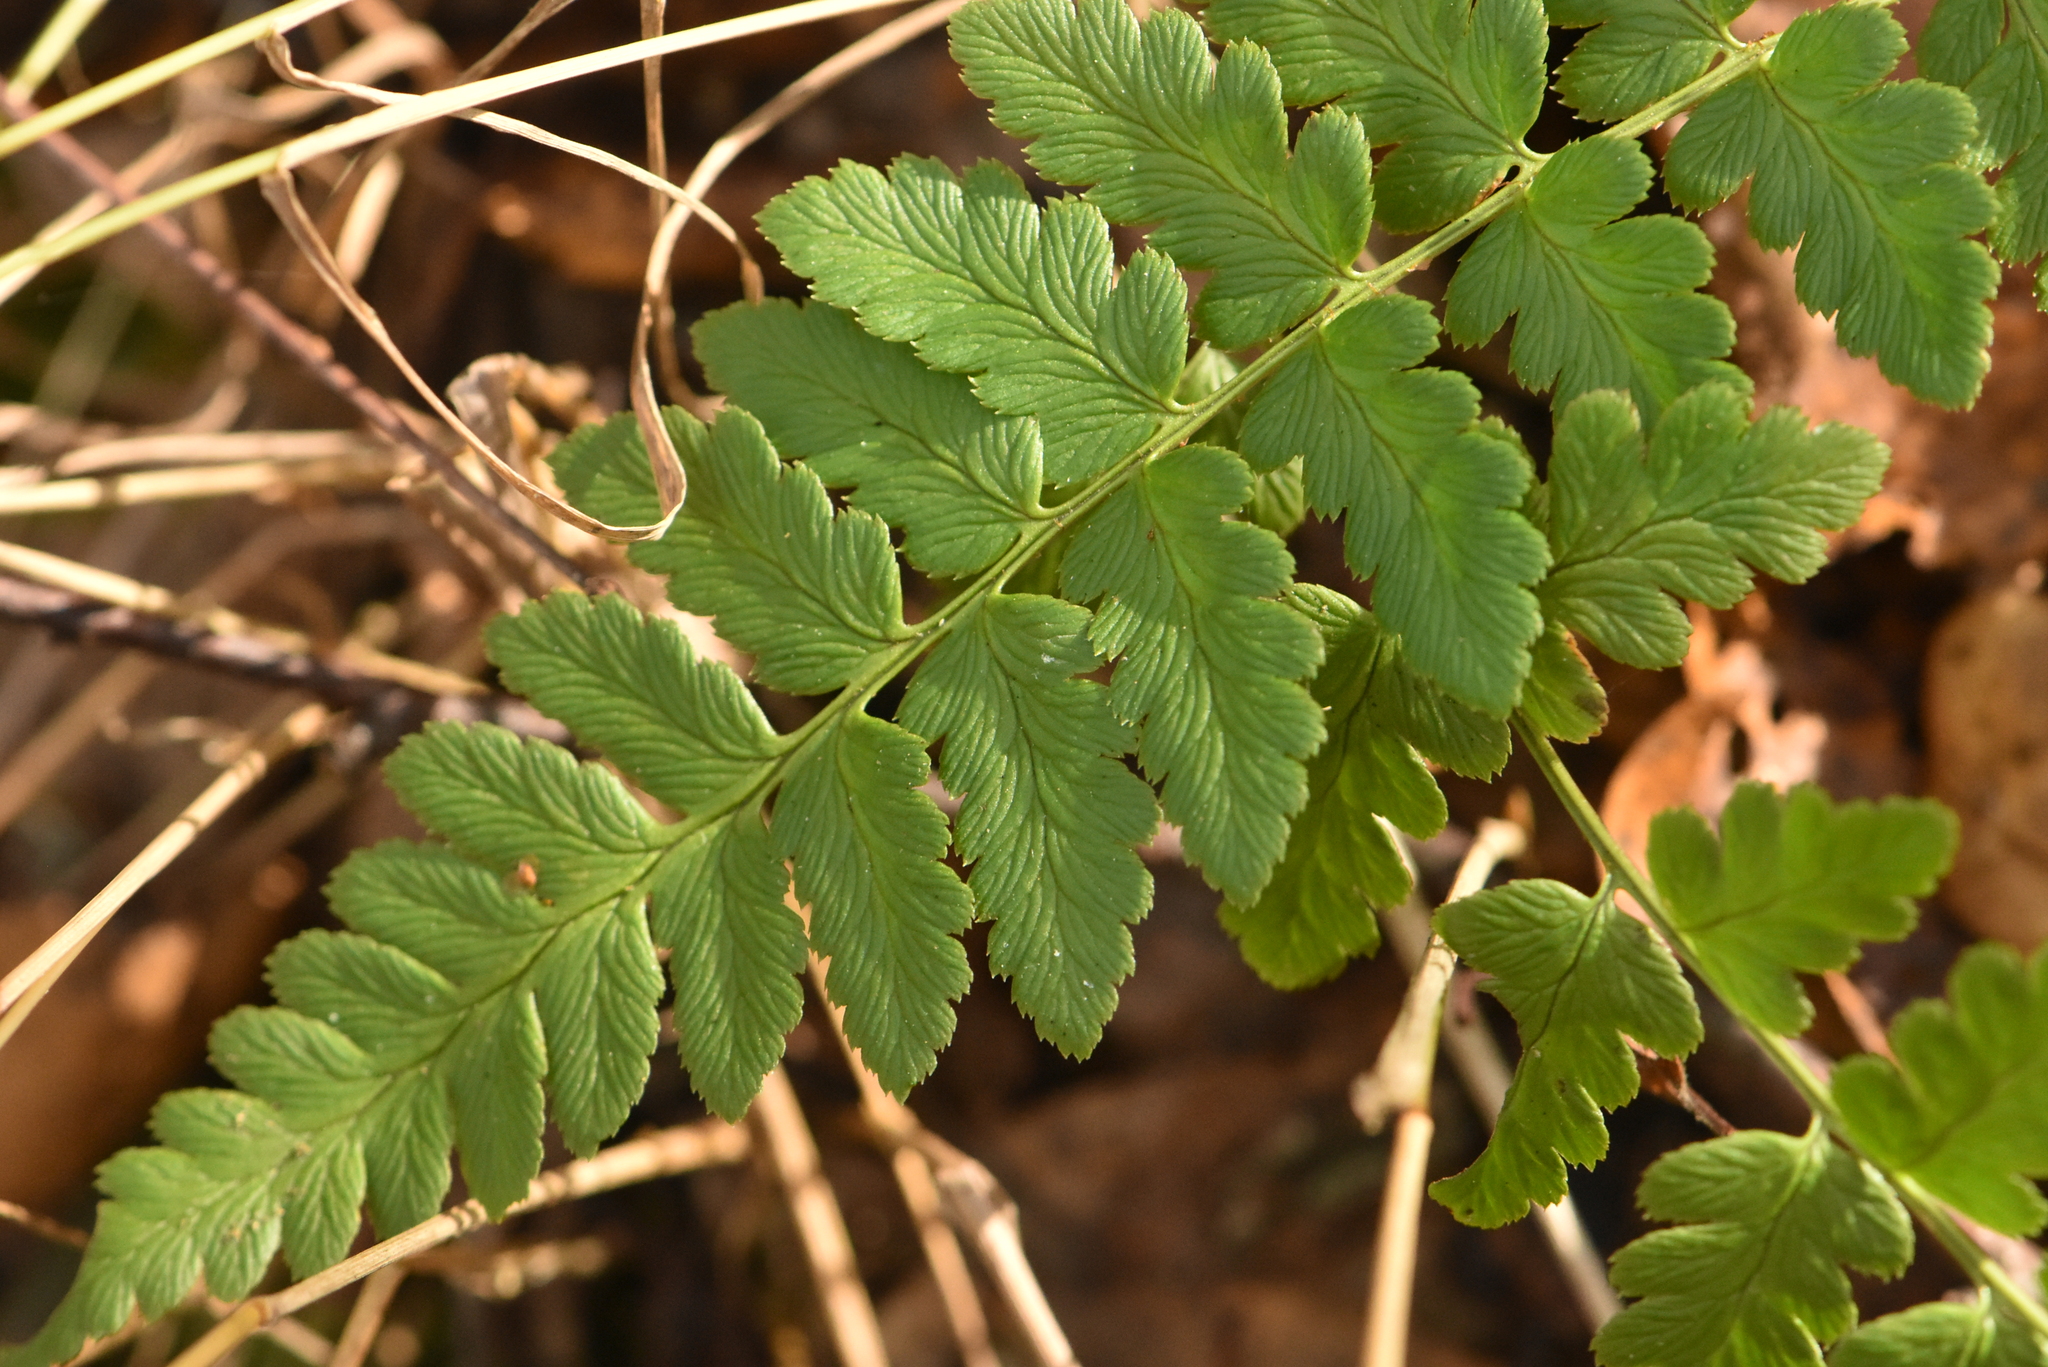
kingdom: Plantae
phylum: Tracheophyta
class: Polypodiopsida
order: Polypodiales
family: Dryopteridaceae
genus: Dryopteris
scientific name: Dryopteris cristata
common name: Crested wood fern
